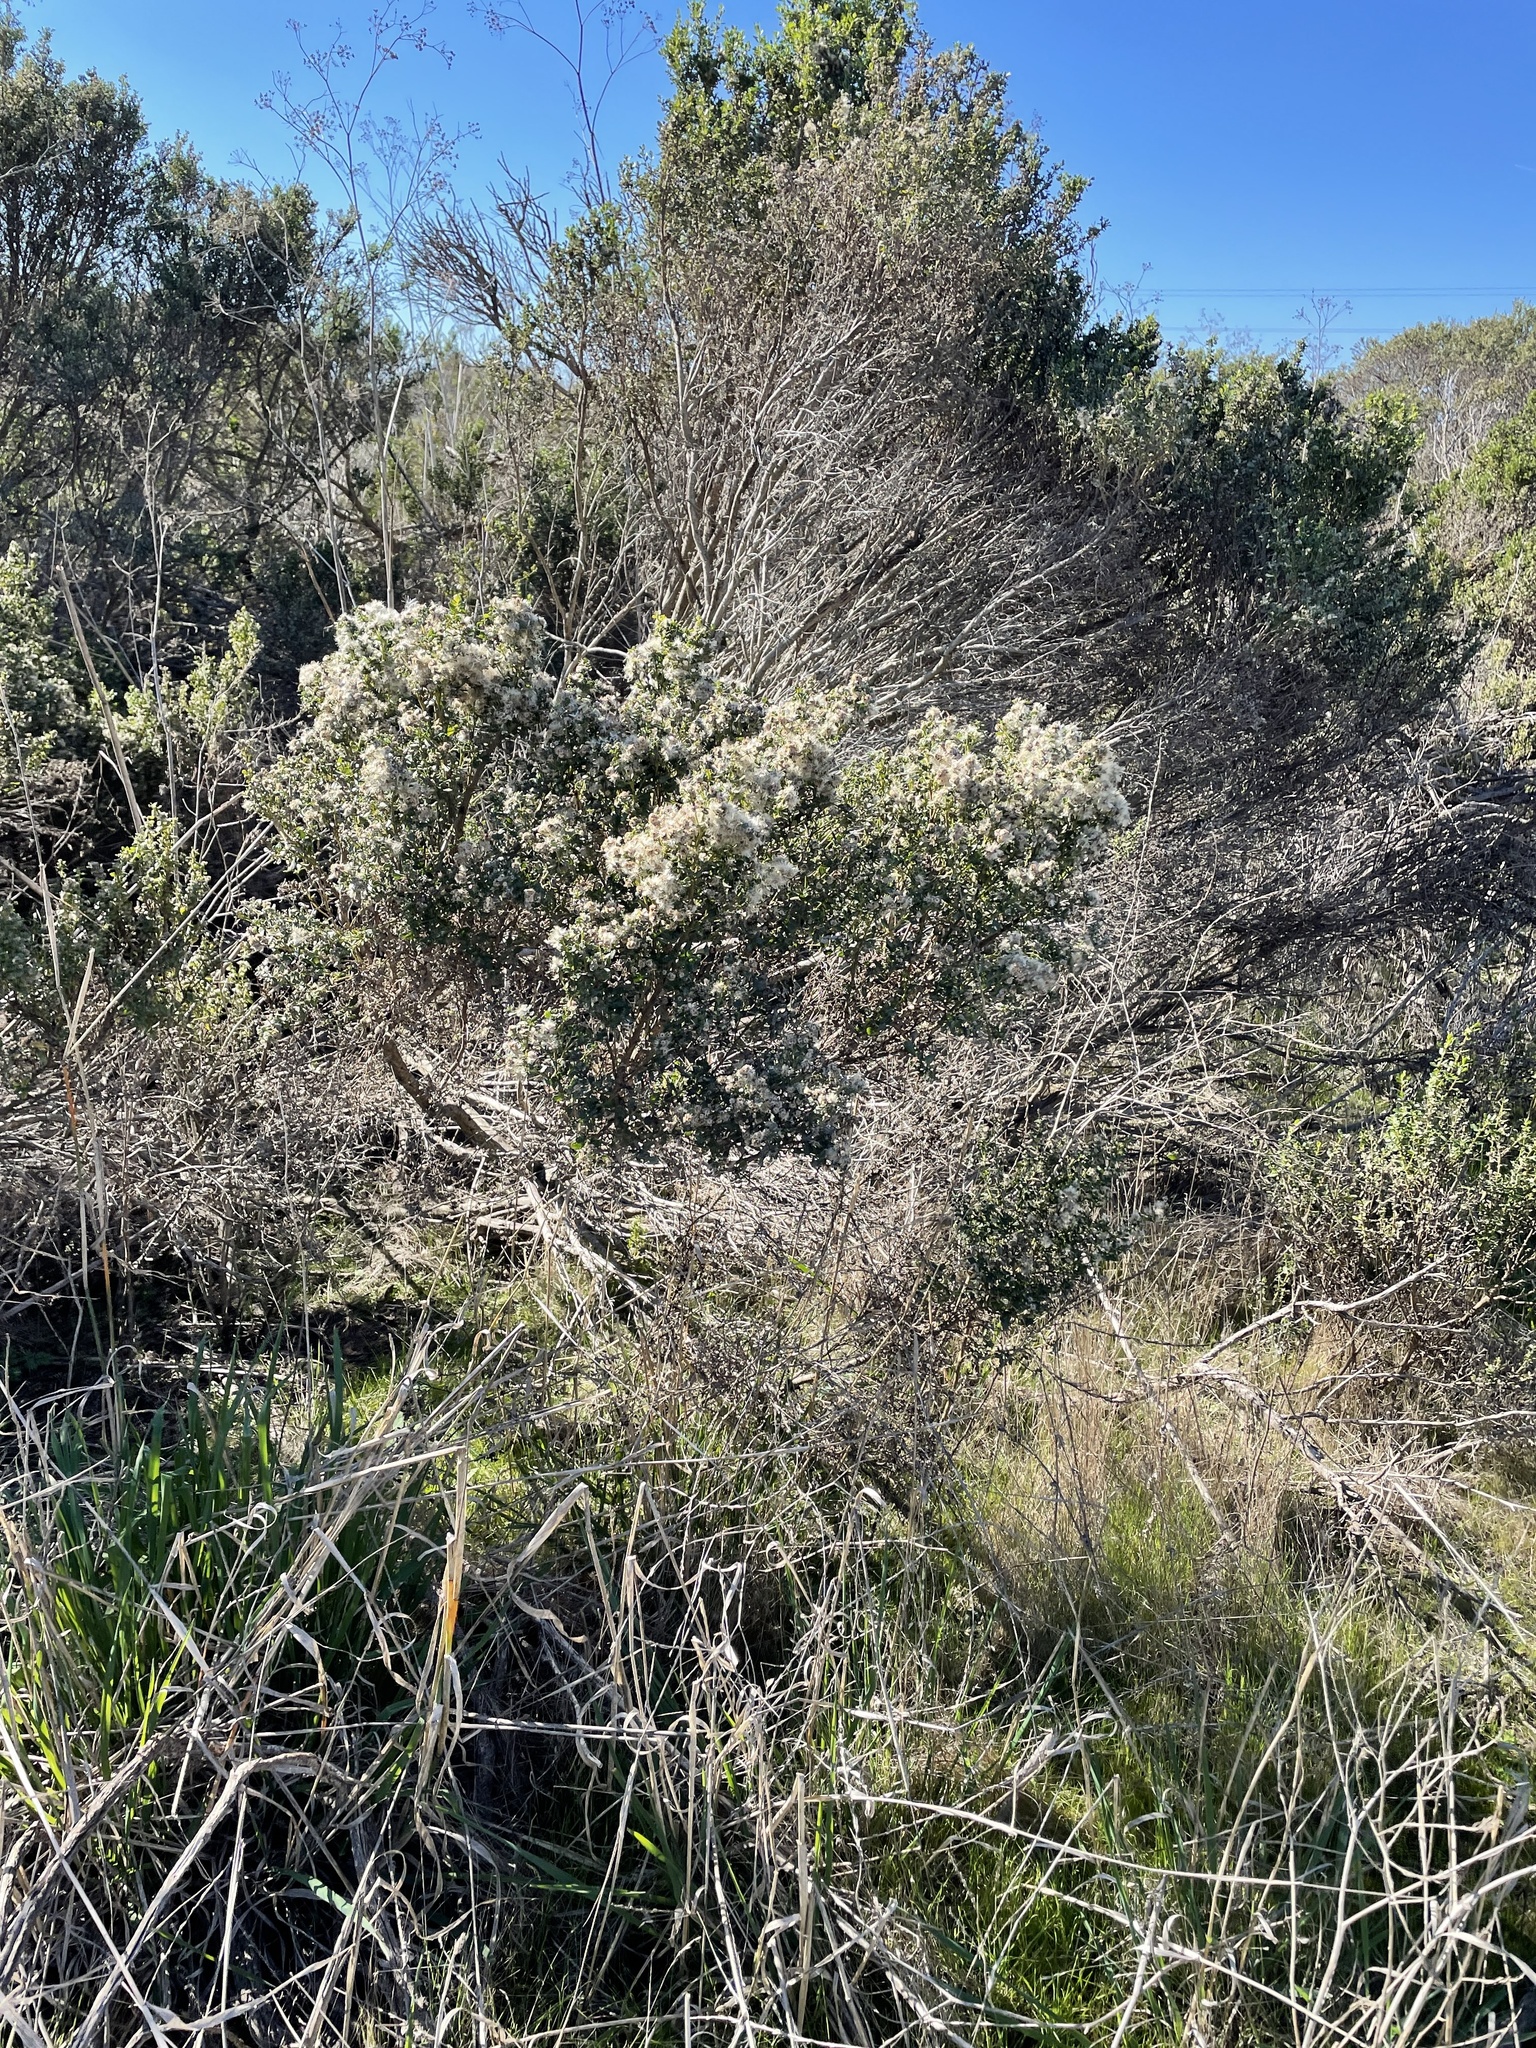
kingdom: Plantae
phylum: Tracheophyta
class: Magnoliopsida
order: Asterales
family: Asteraceae
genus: Baccharis
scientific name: Baccharis pilularis
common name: Coyotebrush
